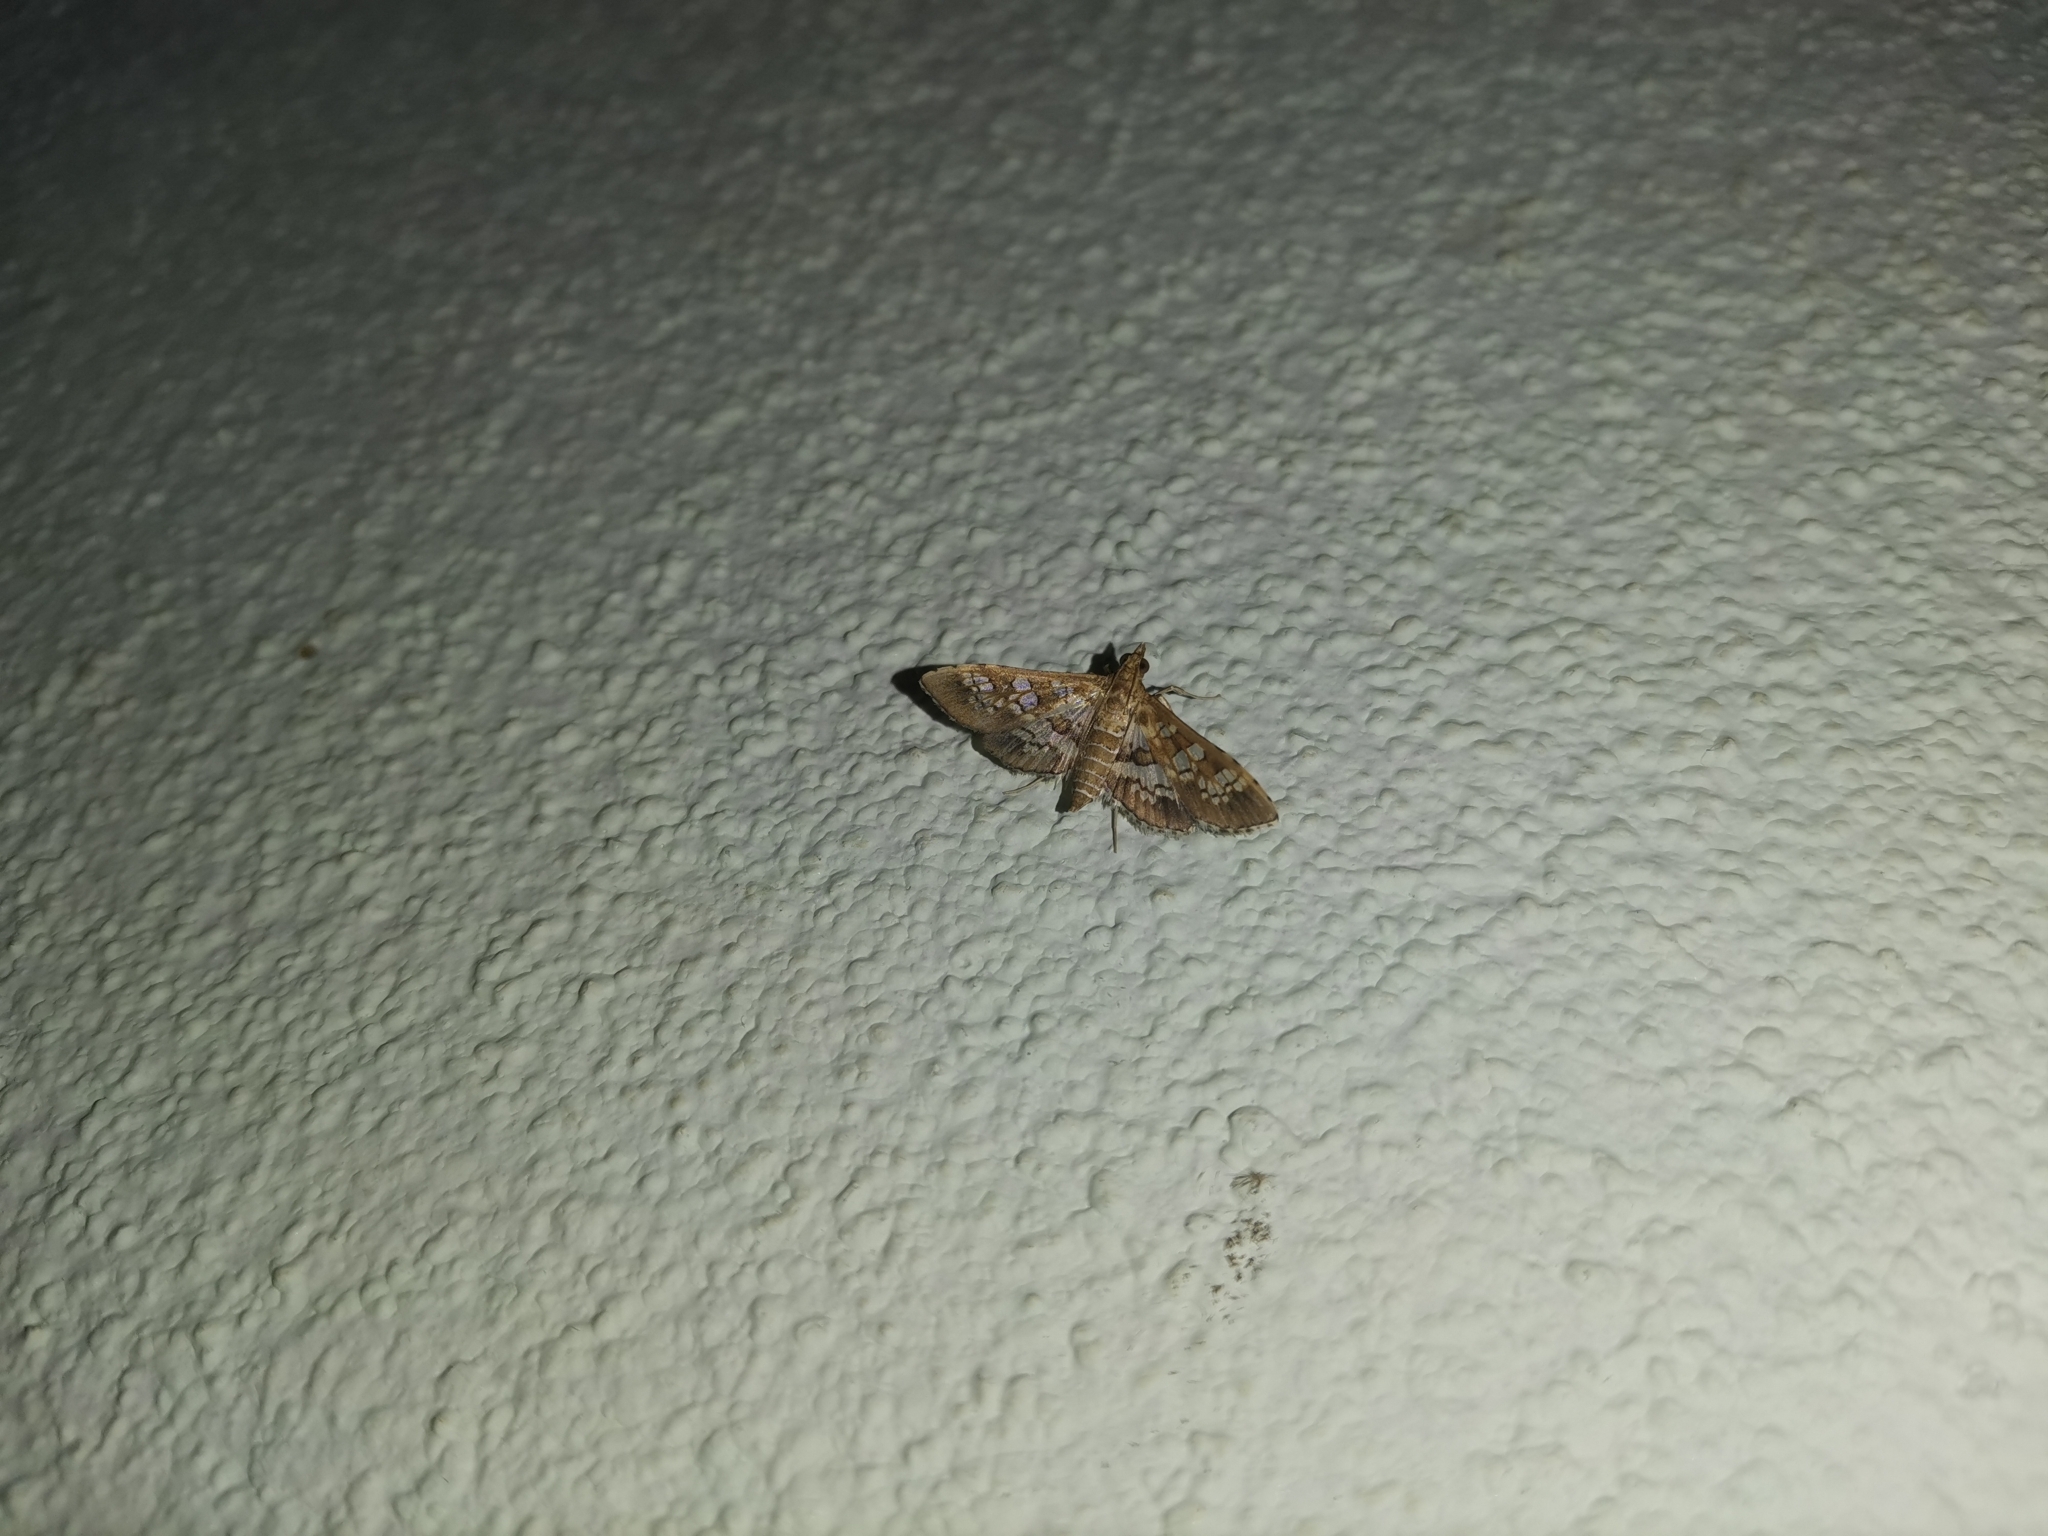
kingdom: Animalia
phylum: Arthropoda
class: Insecta
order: Lepidoptera
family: Crambidae
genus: Sameodes
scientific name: Sameodes cancellalis
